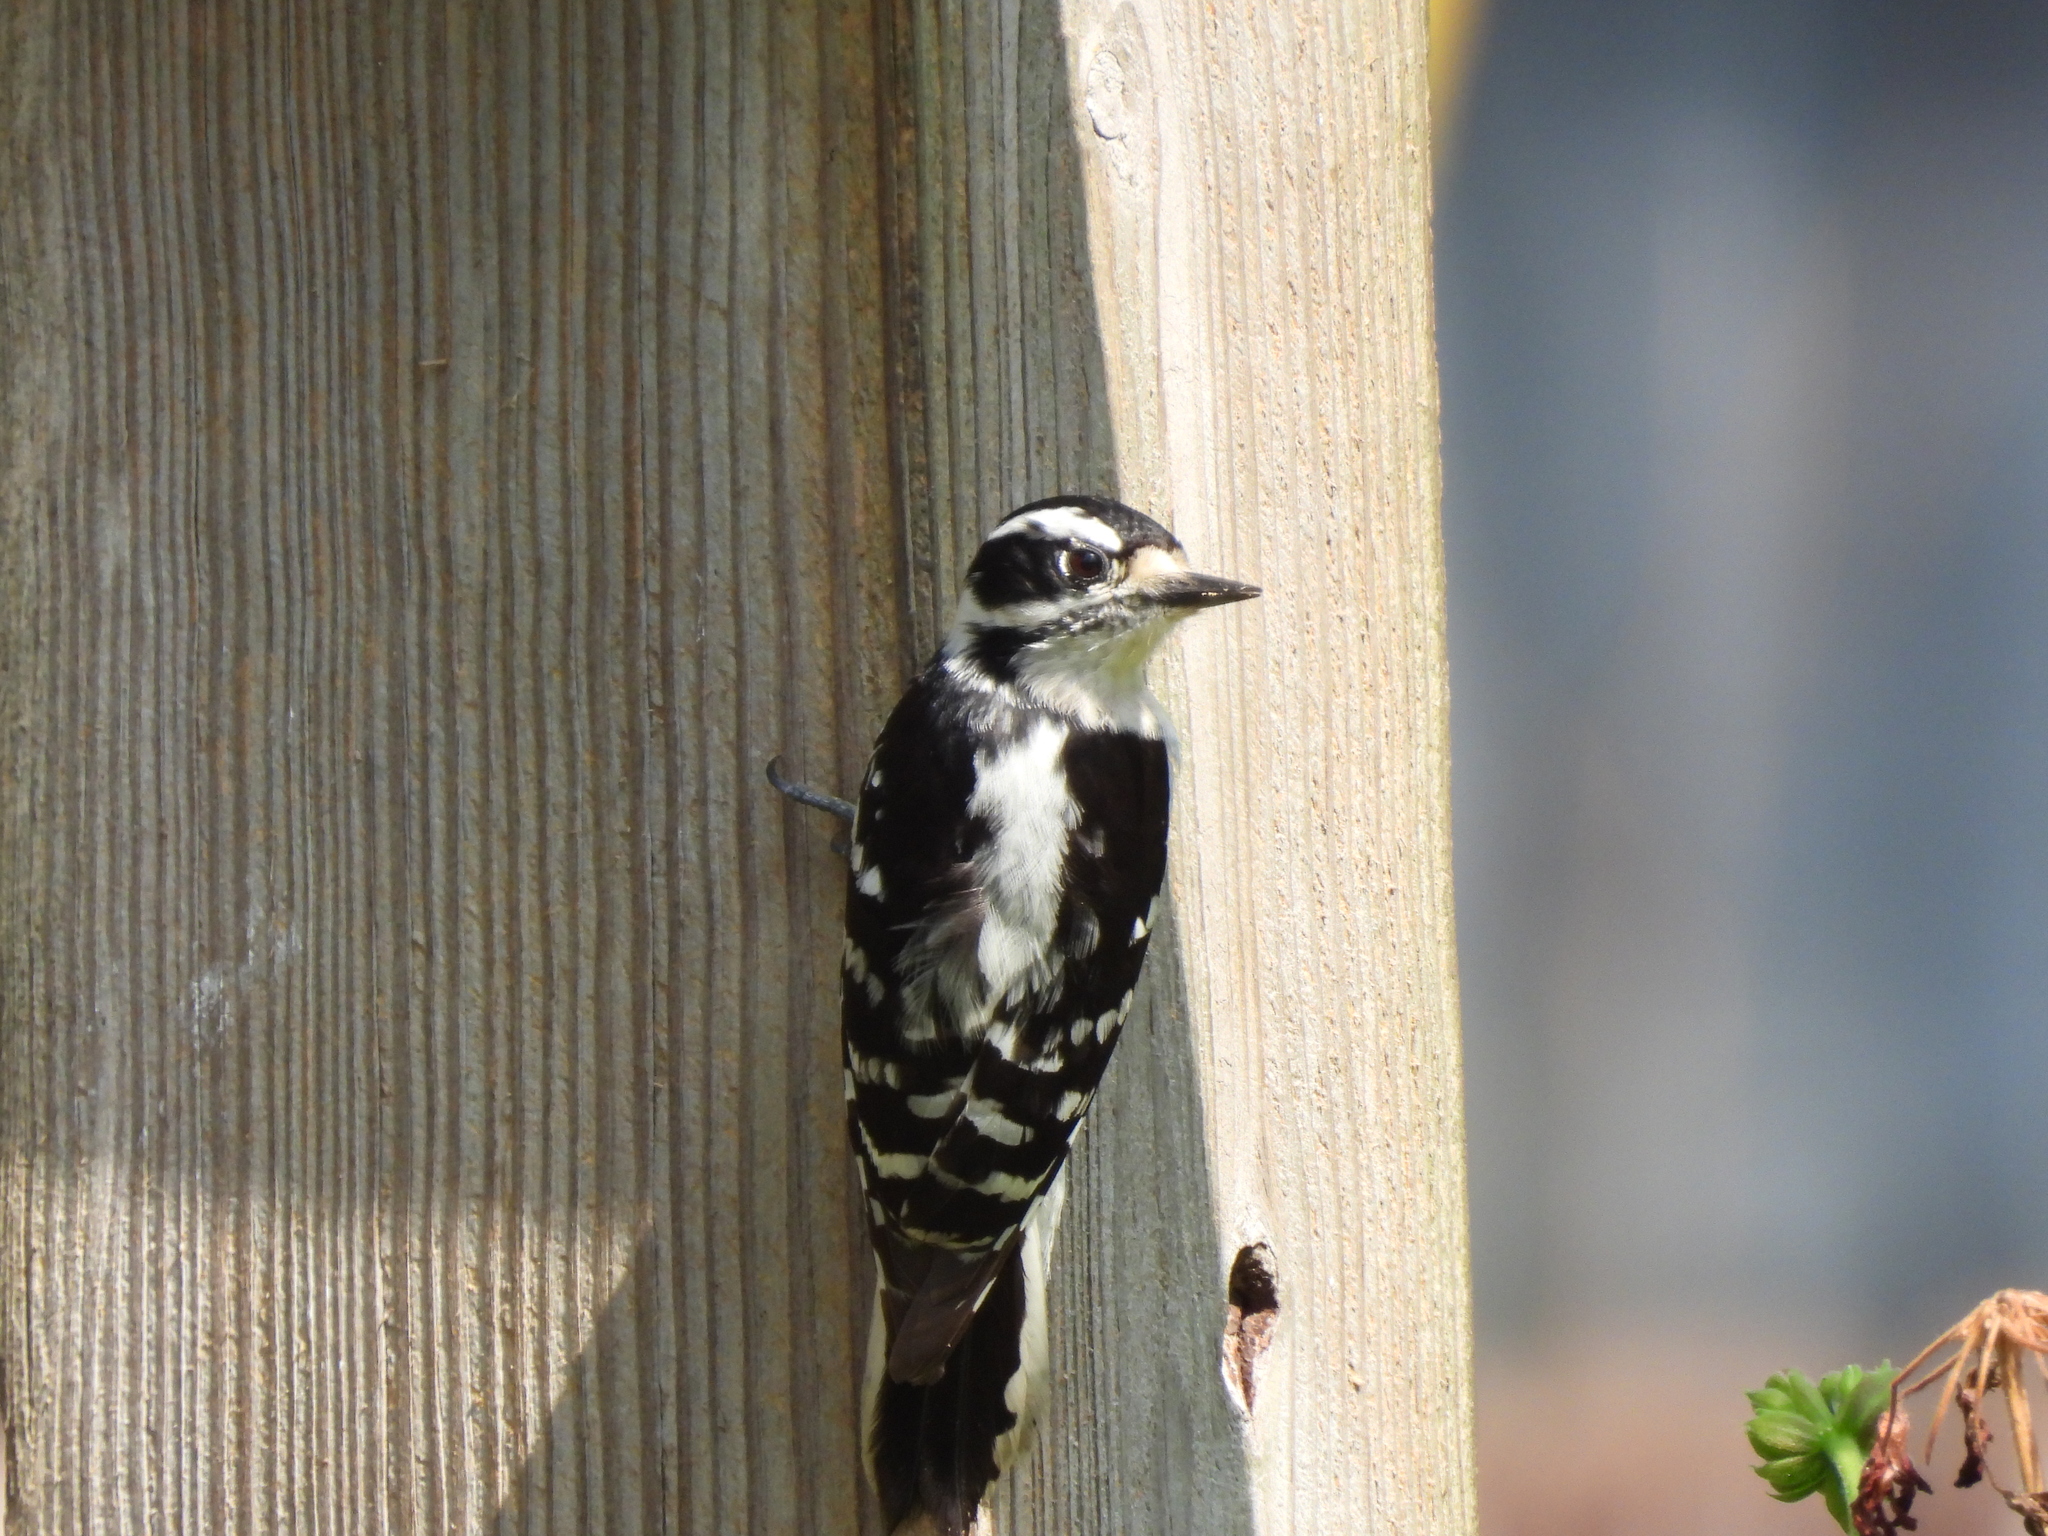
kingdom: Animalia
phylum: Chordata
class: Aves
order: Piciformes
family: Picidae
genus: Dryobates
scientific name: Dryobates pubescens
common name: Downy woodpecker
